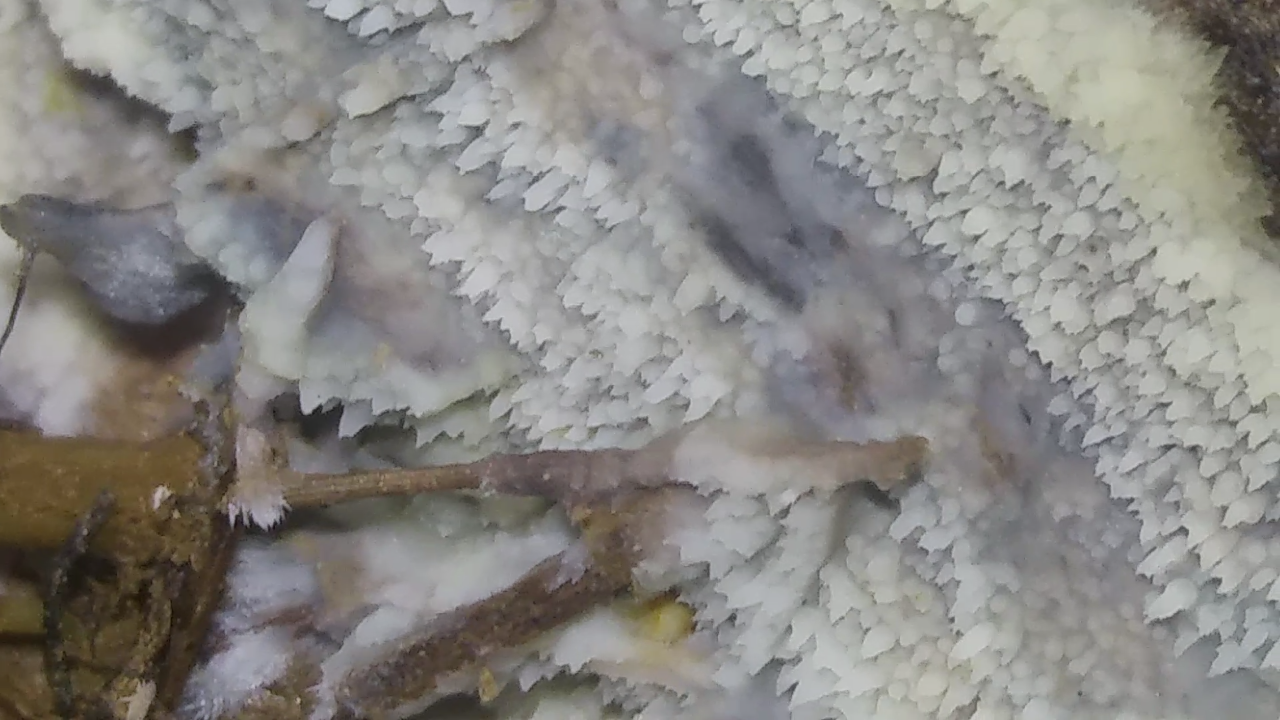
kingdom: Fungi
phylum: Basidiomycota
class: Agaricomycetes
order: Agaricales
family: Radulomycetaceae
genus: Radulomyces
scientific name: Radulomyces copelandii
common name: Asian beauty
